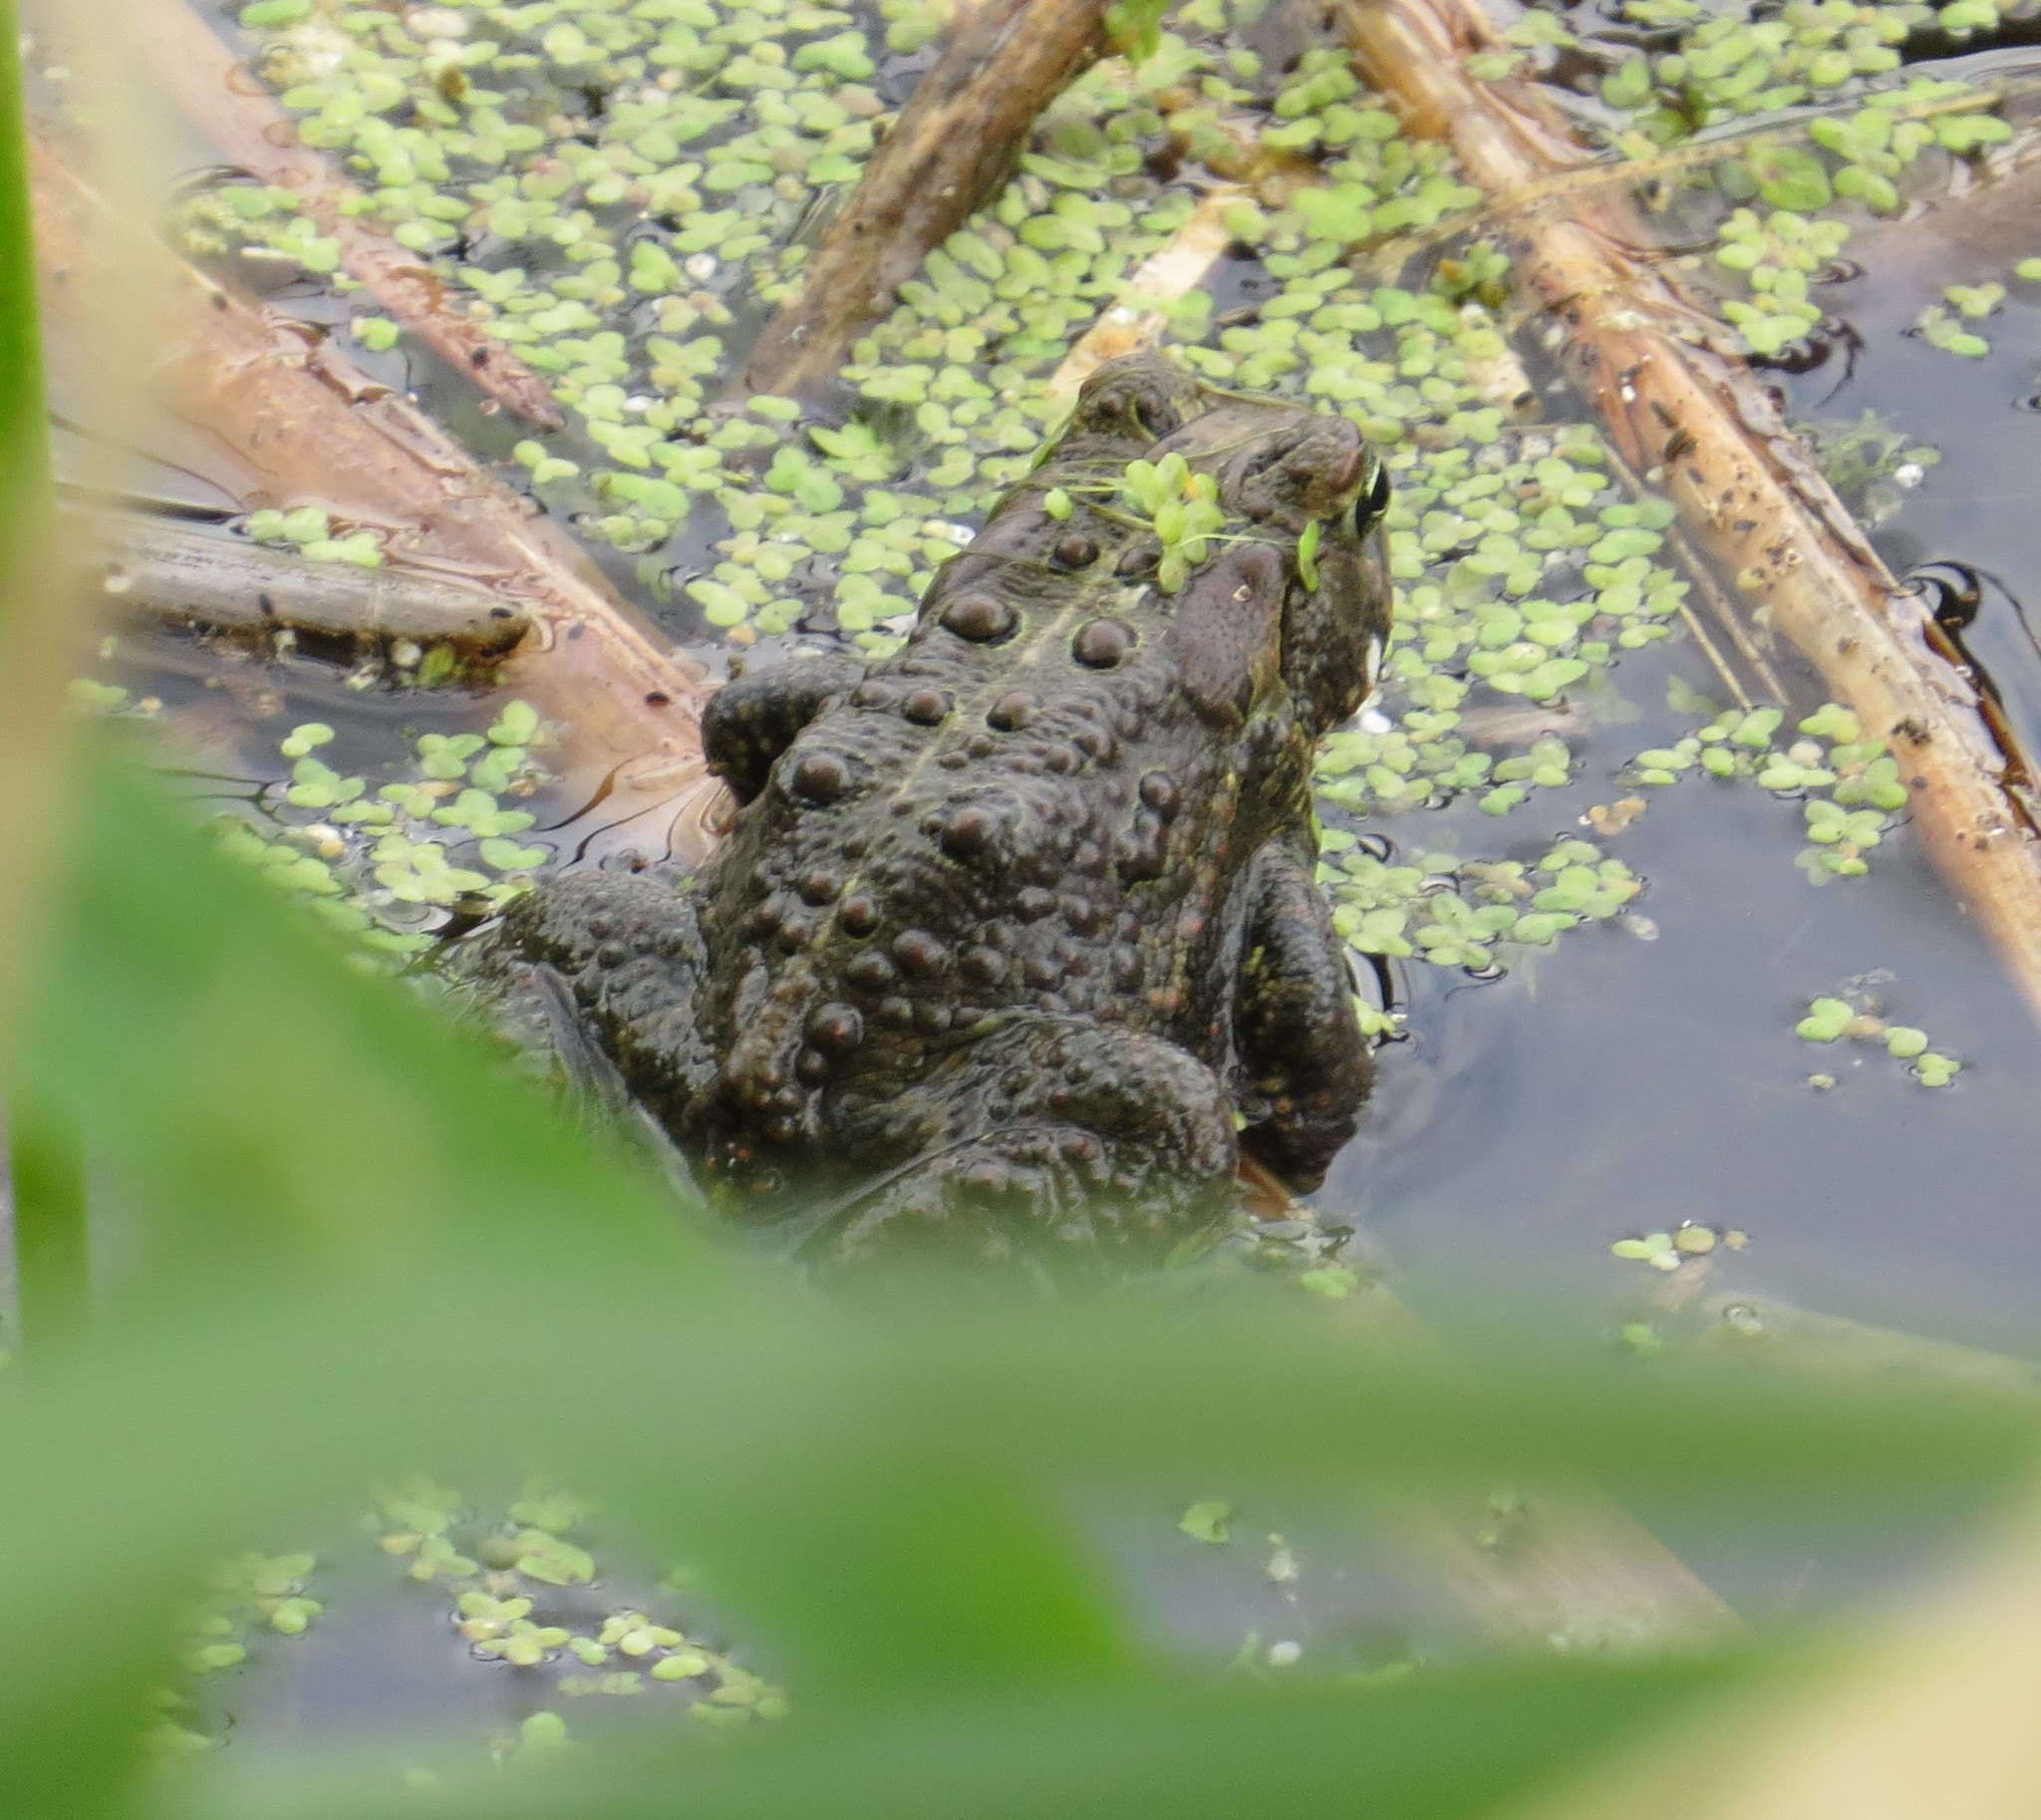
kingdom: Animalia
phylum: Chordata
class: Amphibia
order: Anura
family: Bufonidae
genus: Anaxyrus
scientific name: Anaxyrus americanus
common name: American toad
